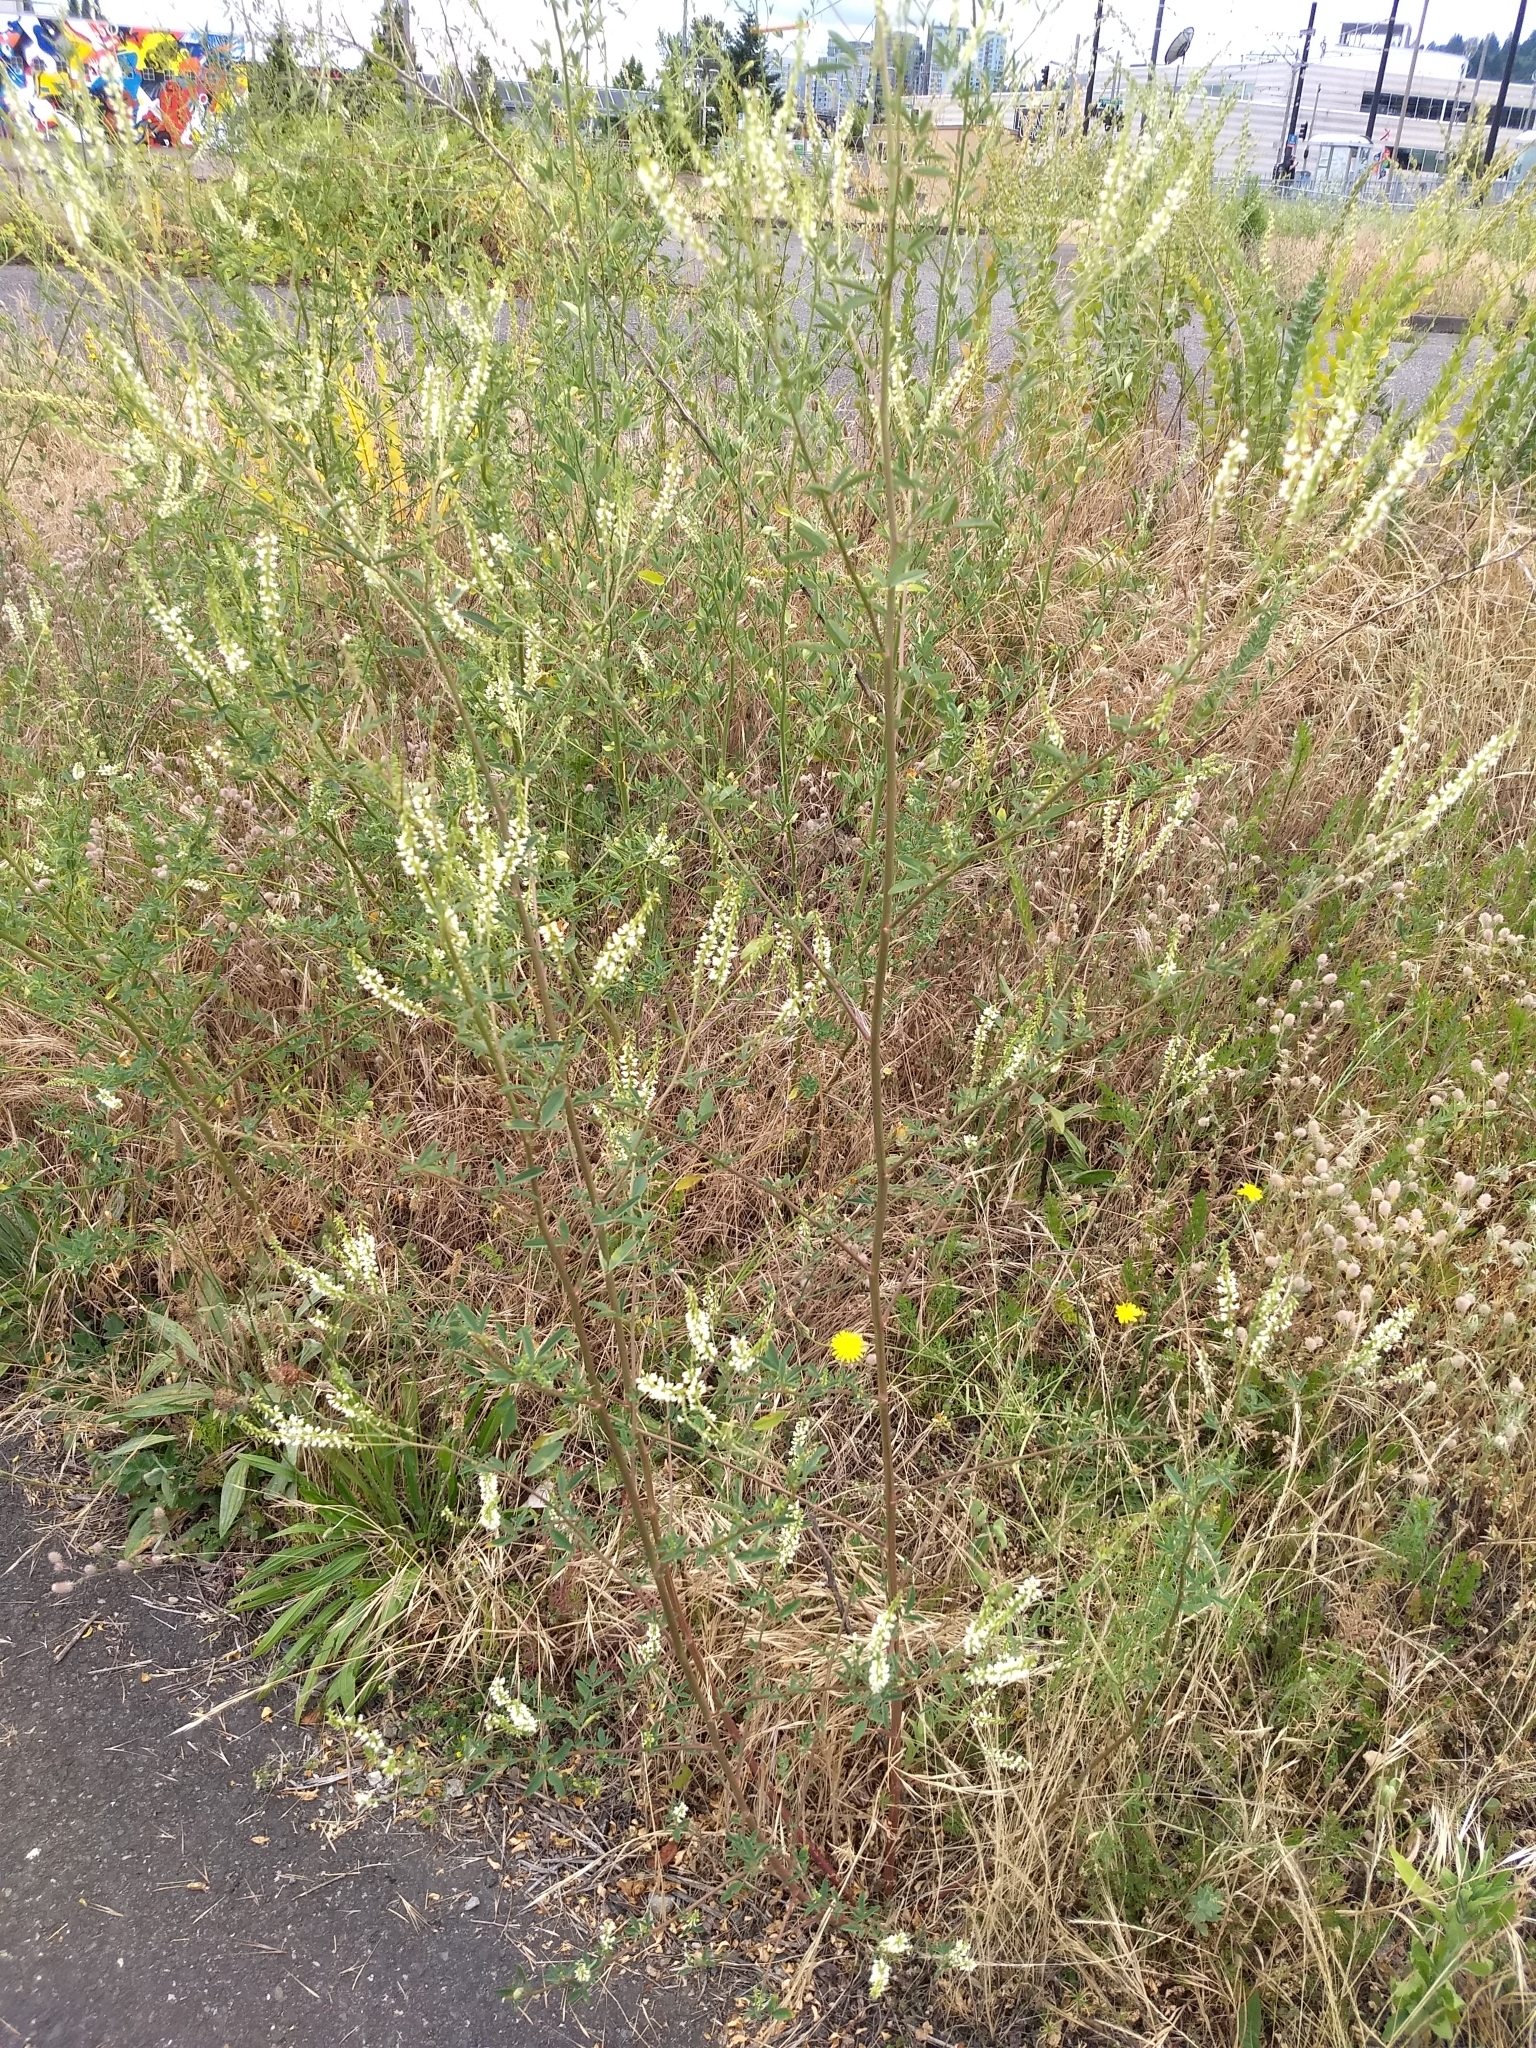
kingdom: Plantae
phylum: Tracheophyta
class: Magnoliopsida
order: Fabales
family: Fabaceae
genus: Melilotus
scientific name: Melilotus albus
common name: White melilot
